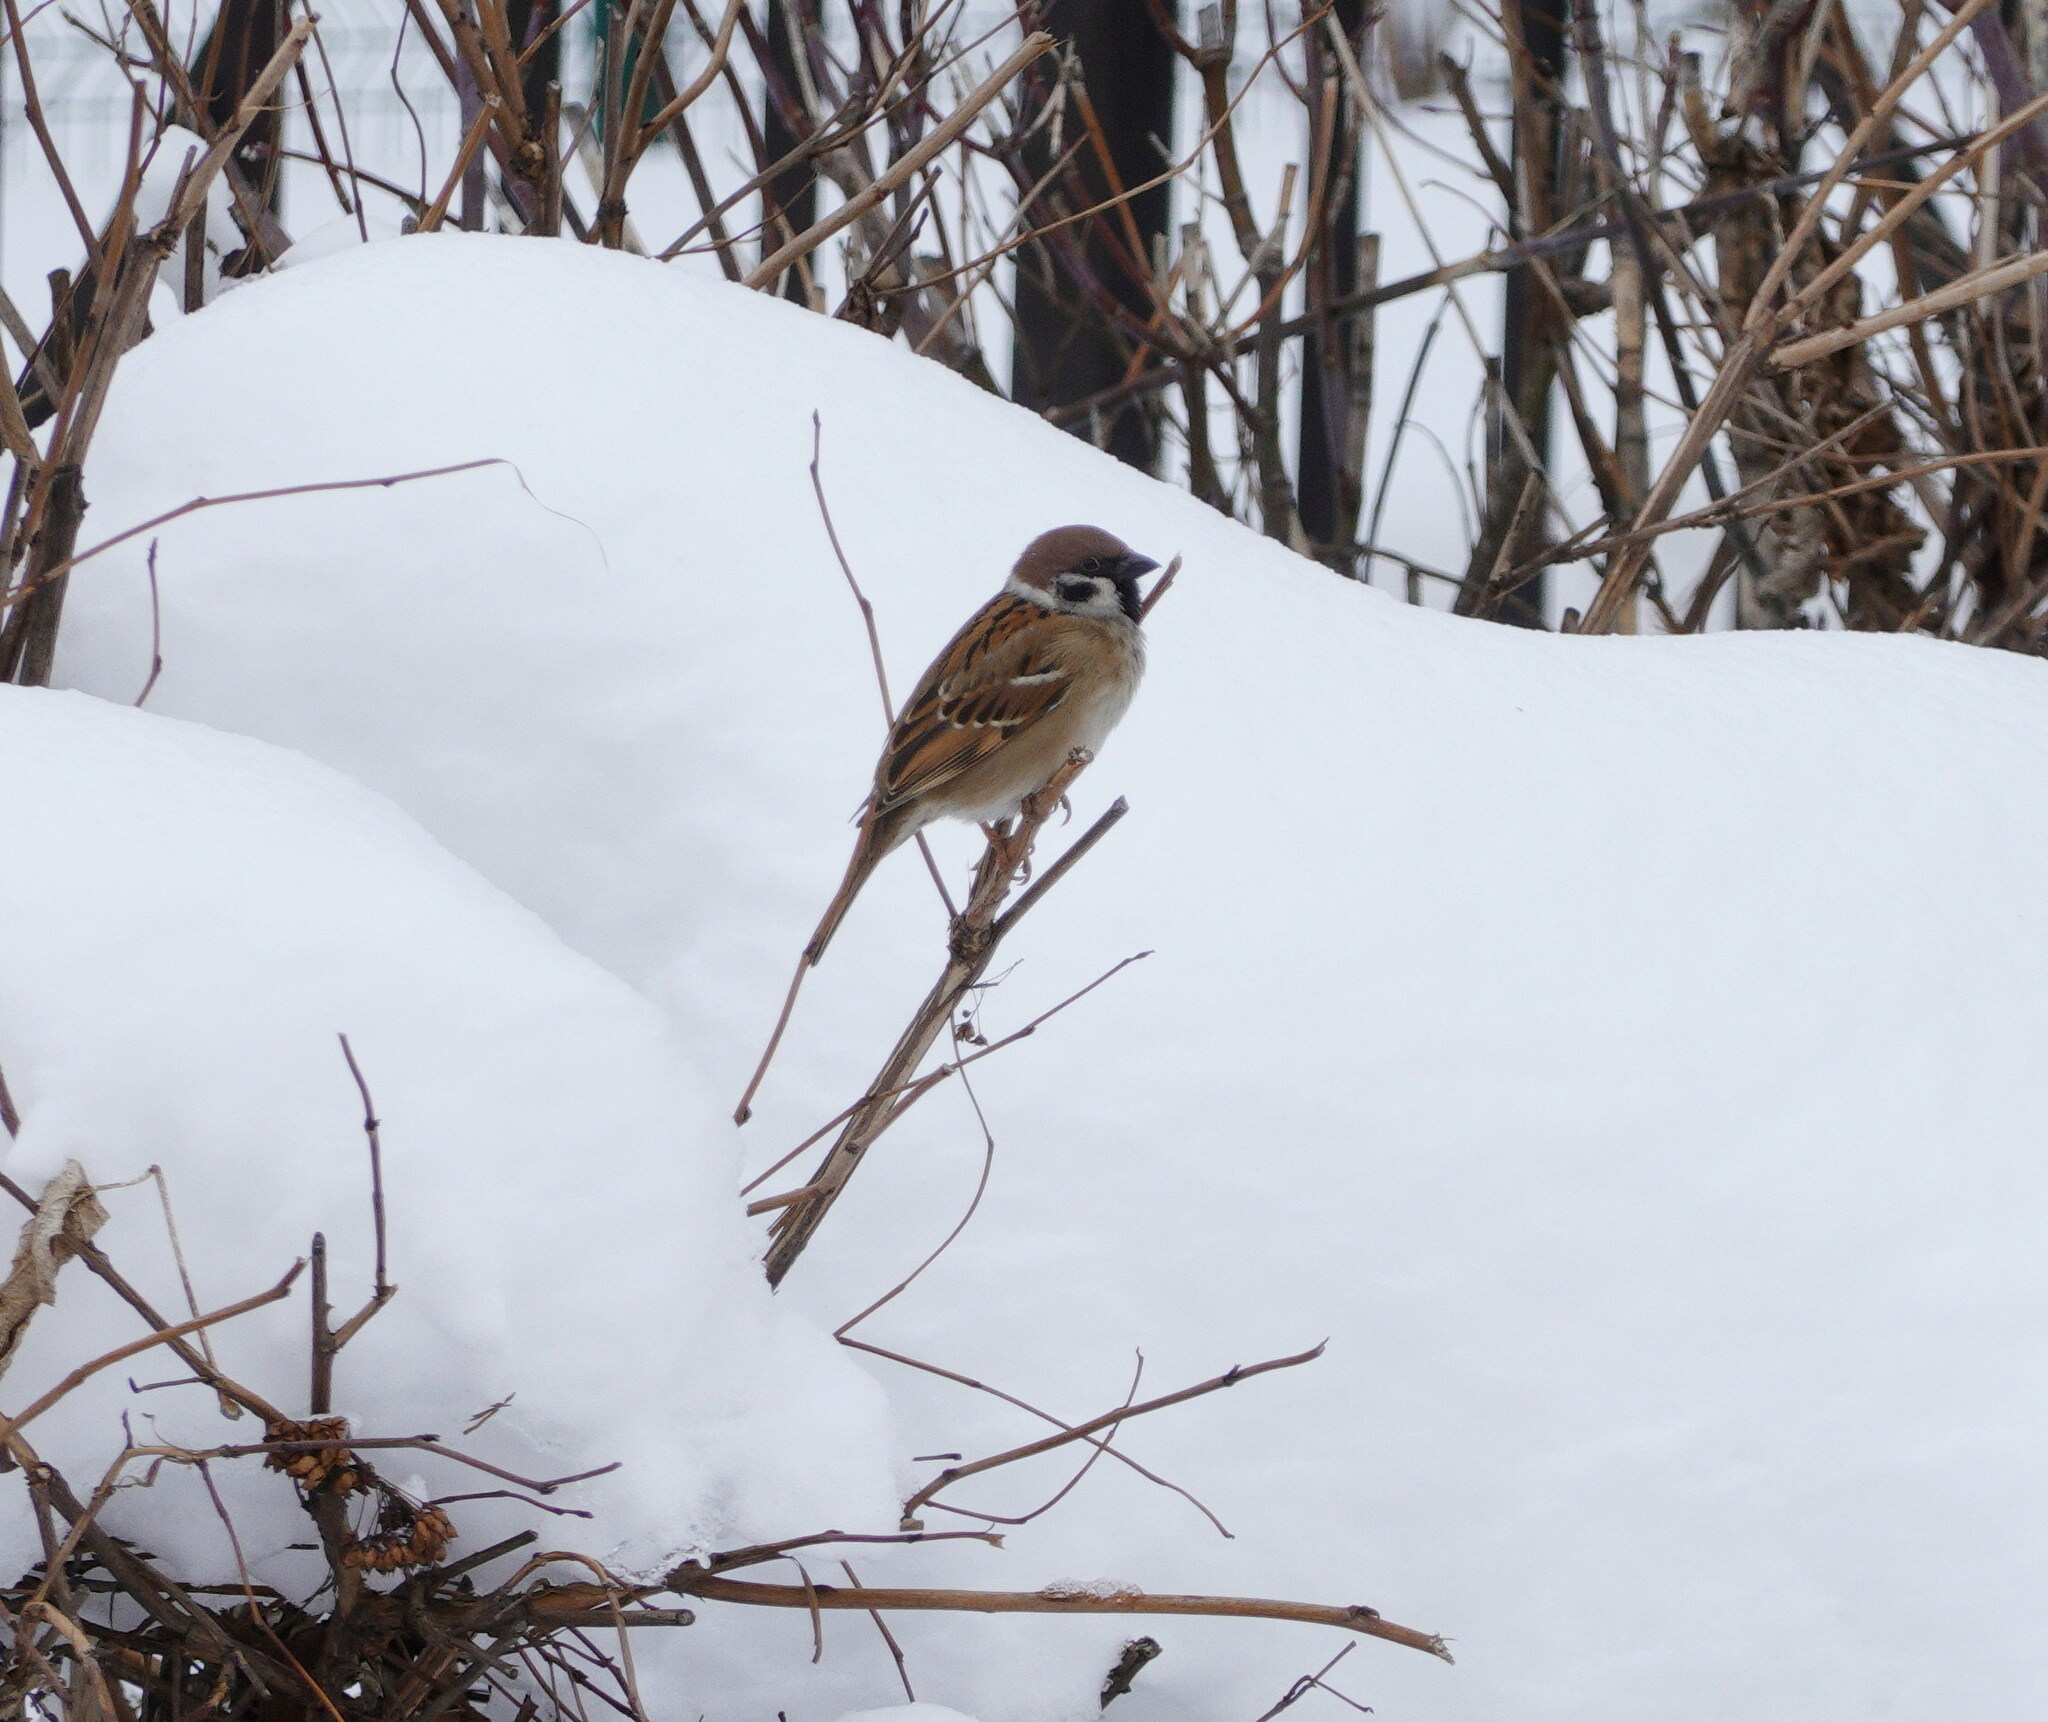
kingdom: Animalia
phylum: Chordata
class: Aves
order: Passeriformes
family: Passeridae
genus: Passer
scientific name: Passer montanus
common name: Eurasian tree sparrow
